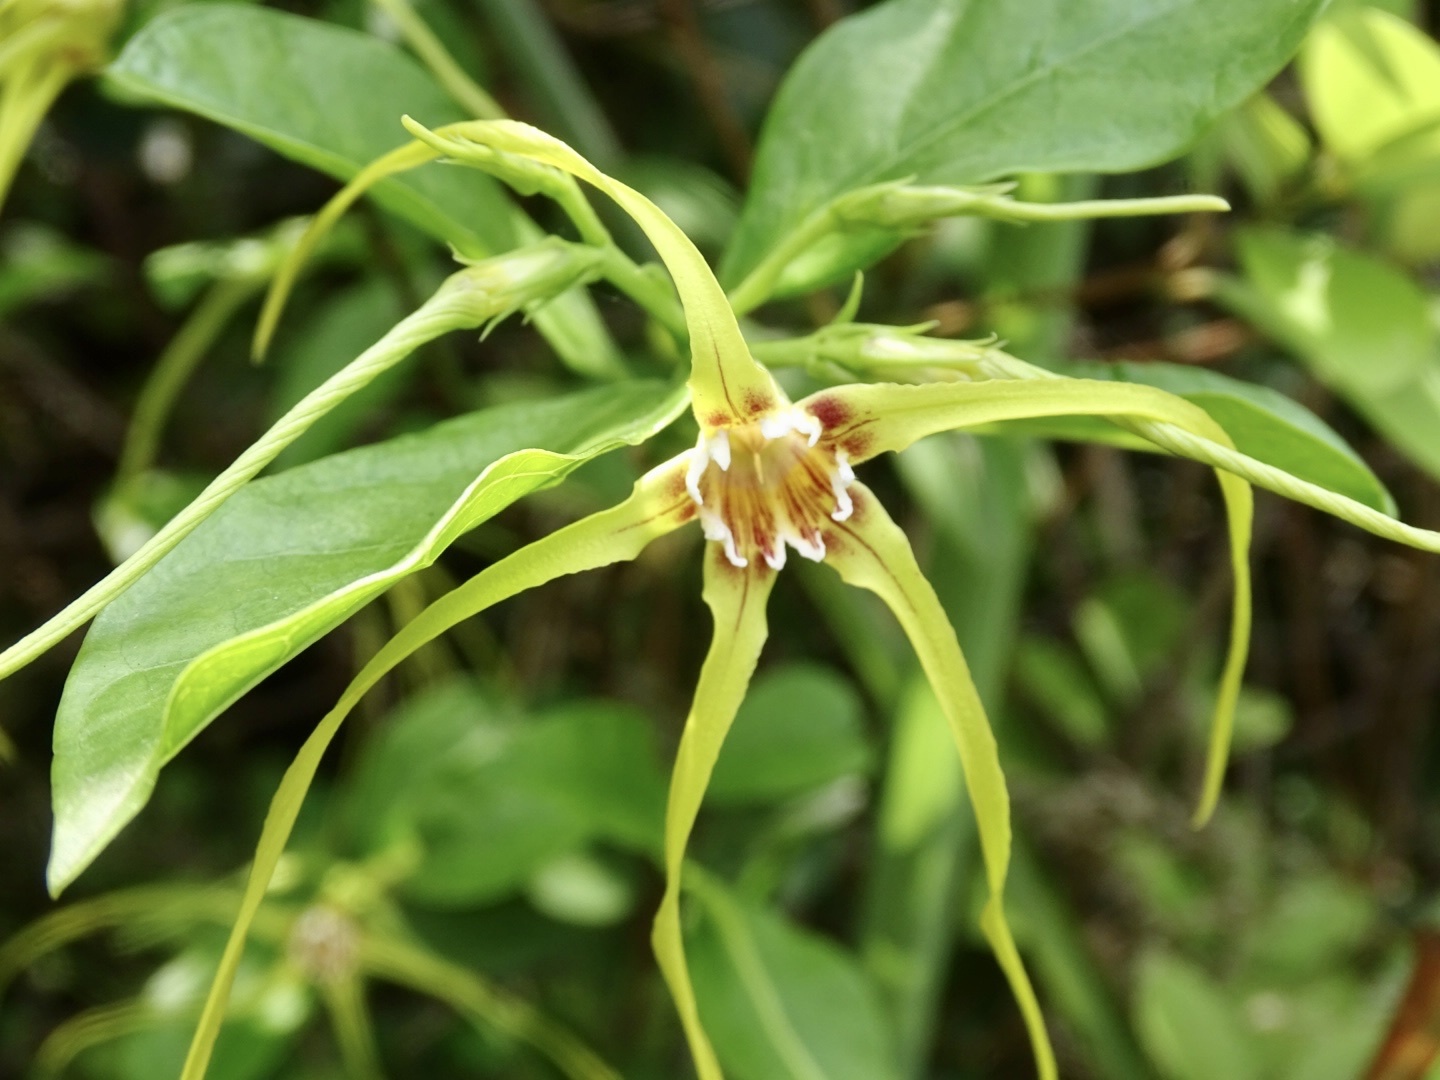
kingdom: Plantae
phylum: Tracheophyta
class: Magnoliopsida
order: Gentianales
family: Apocynaceae
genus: Strophanthus
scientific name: Strophanthus divaricatus
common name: Goat-horns
